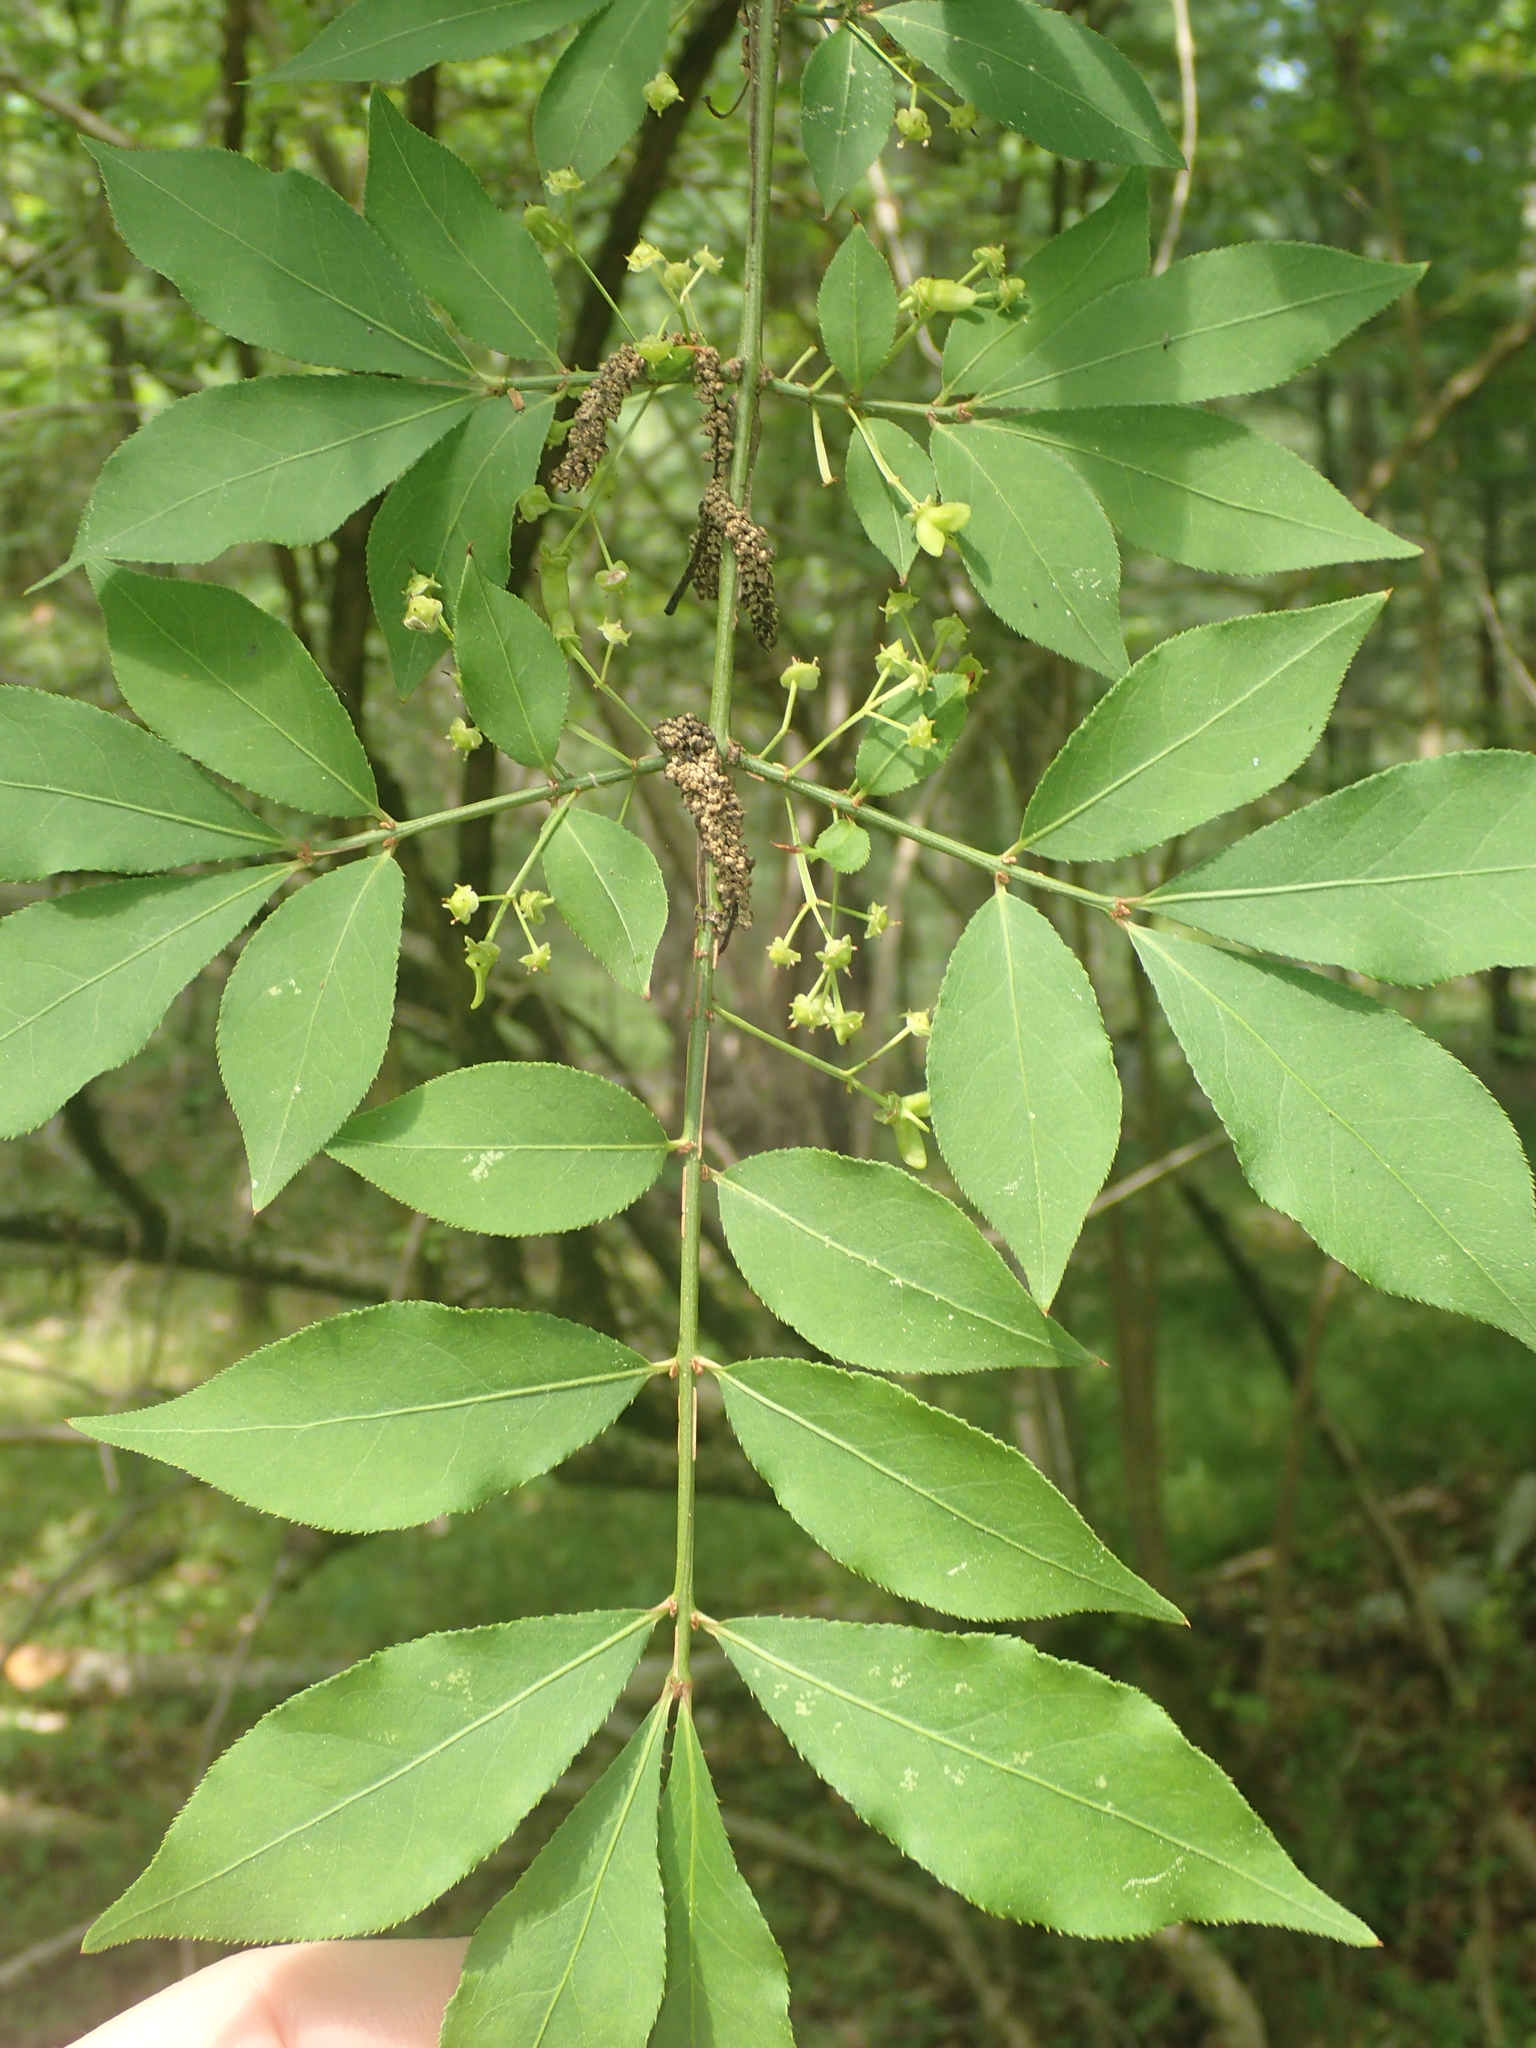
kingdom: Plantae
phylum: Tracheophyta
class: Magnoliopsida
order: Celastrales
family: Celastraceae
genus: Euonymus
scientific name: Euonymus alatus
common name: Winged euonymus
